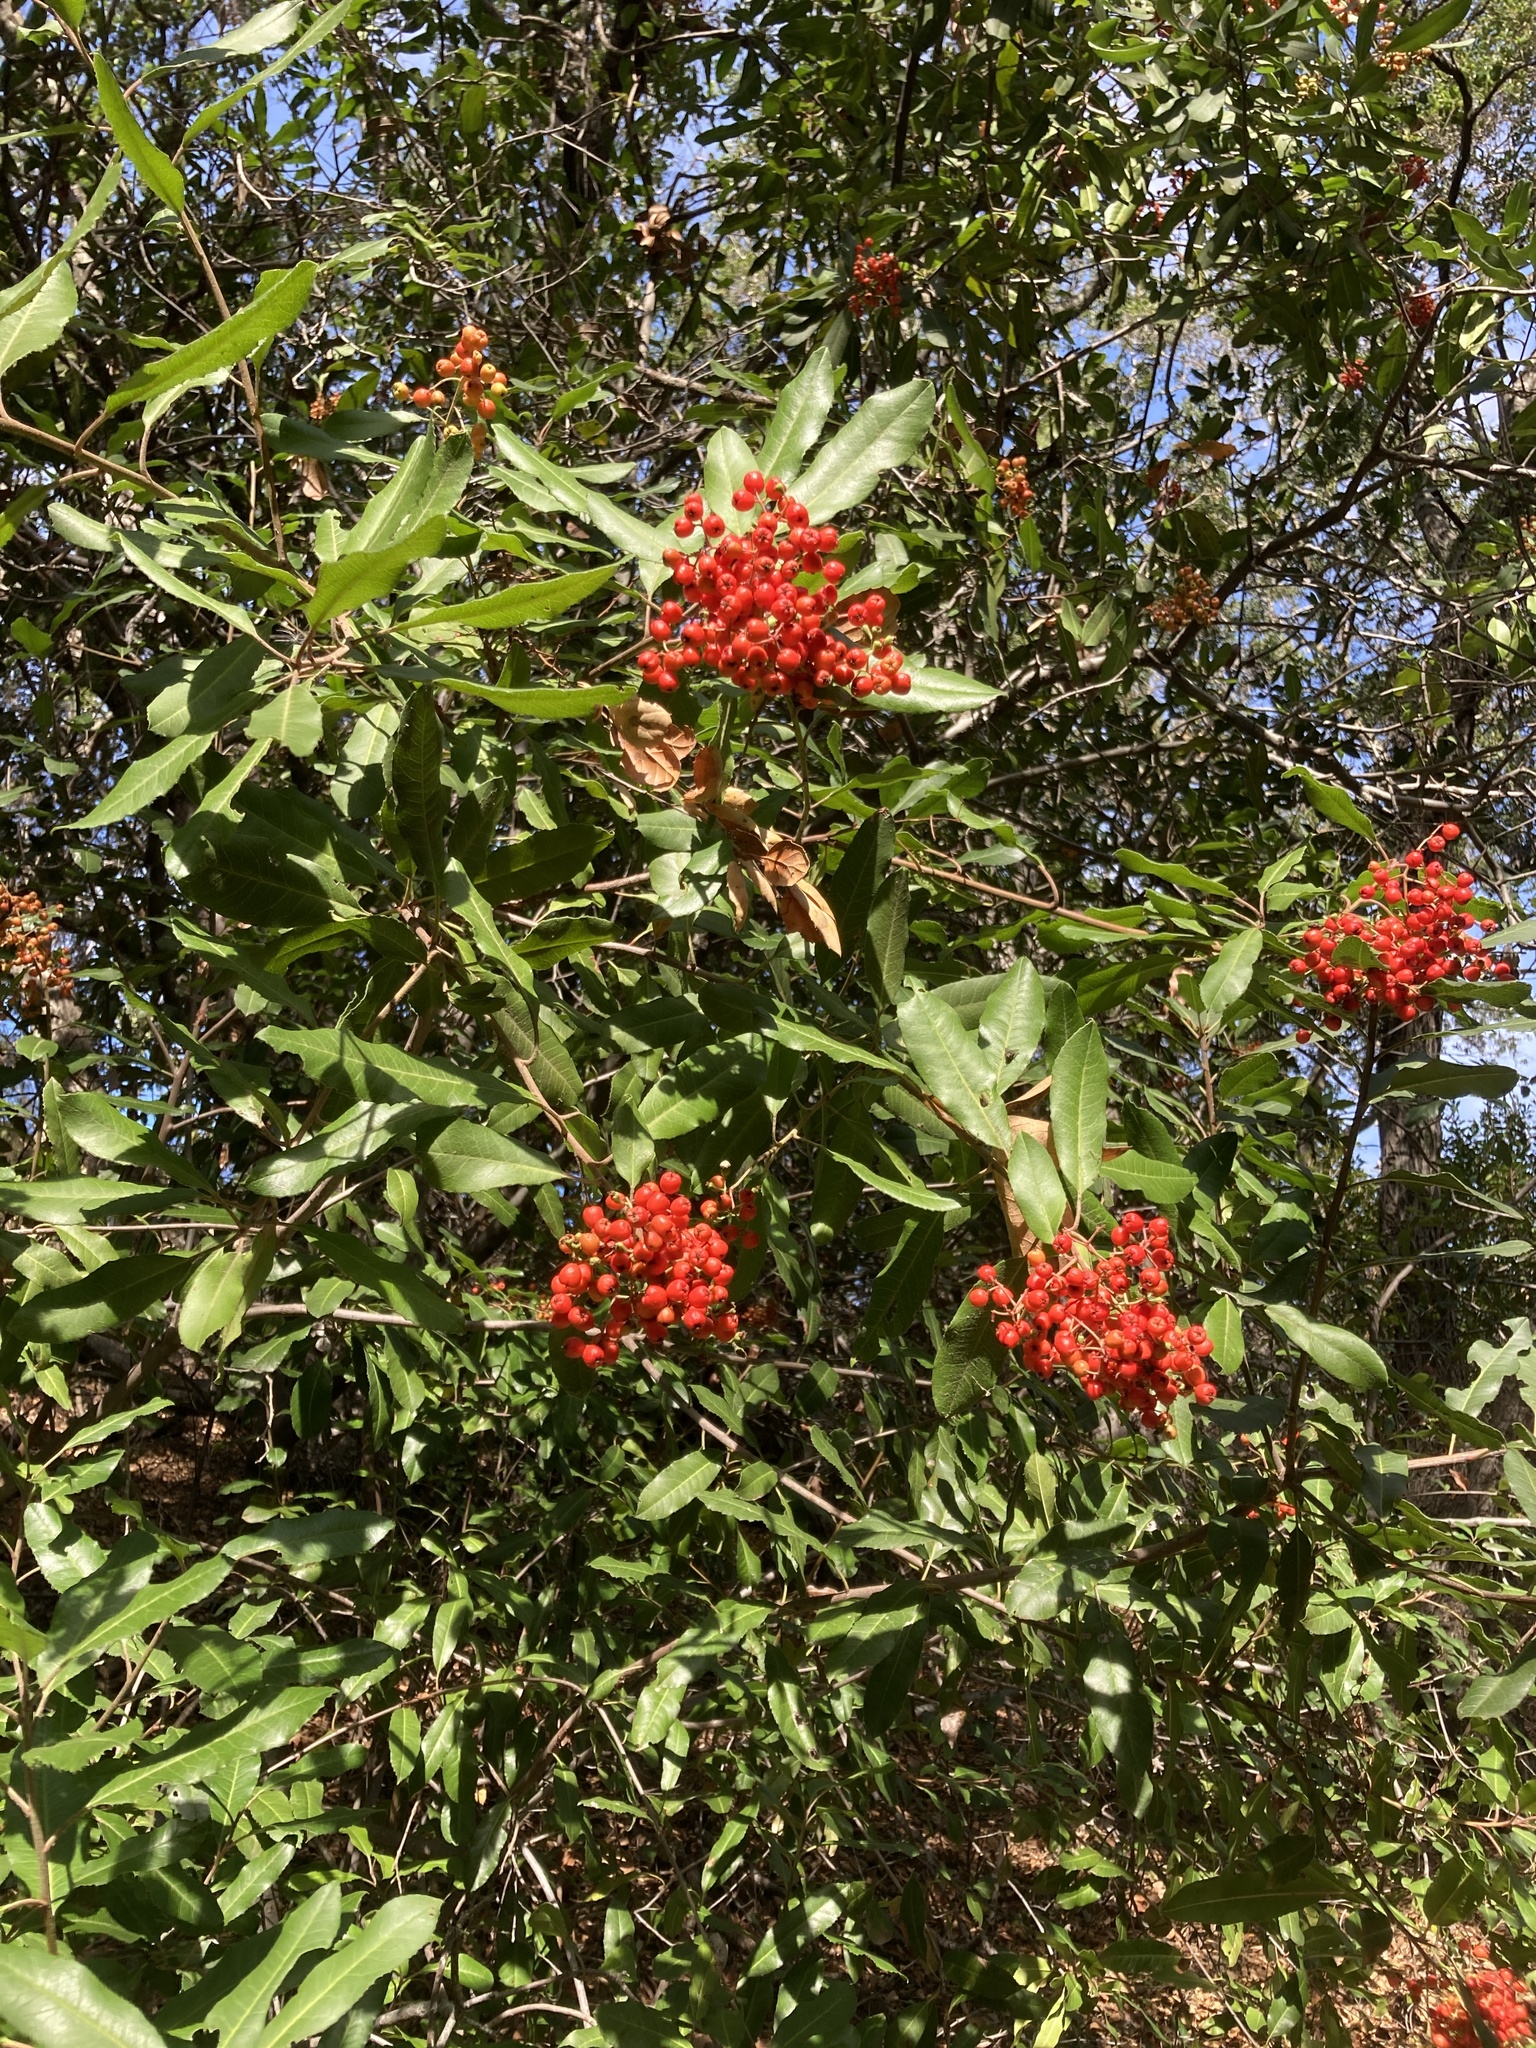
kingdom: Plantae
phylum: Tracheophyta
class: Magnoliopsida
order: Rosales
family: Rosaceae
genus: Heteromeles
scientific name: Heteromeles arbutifolia
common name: California-holly
